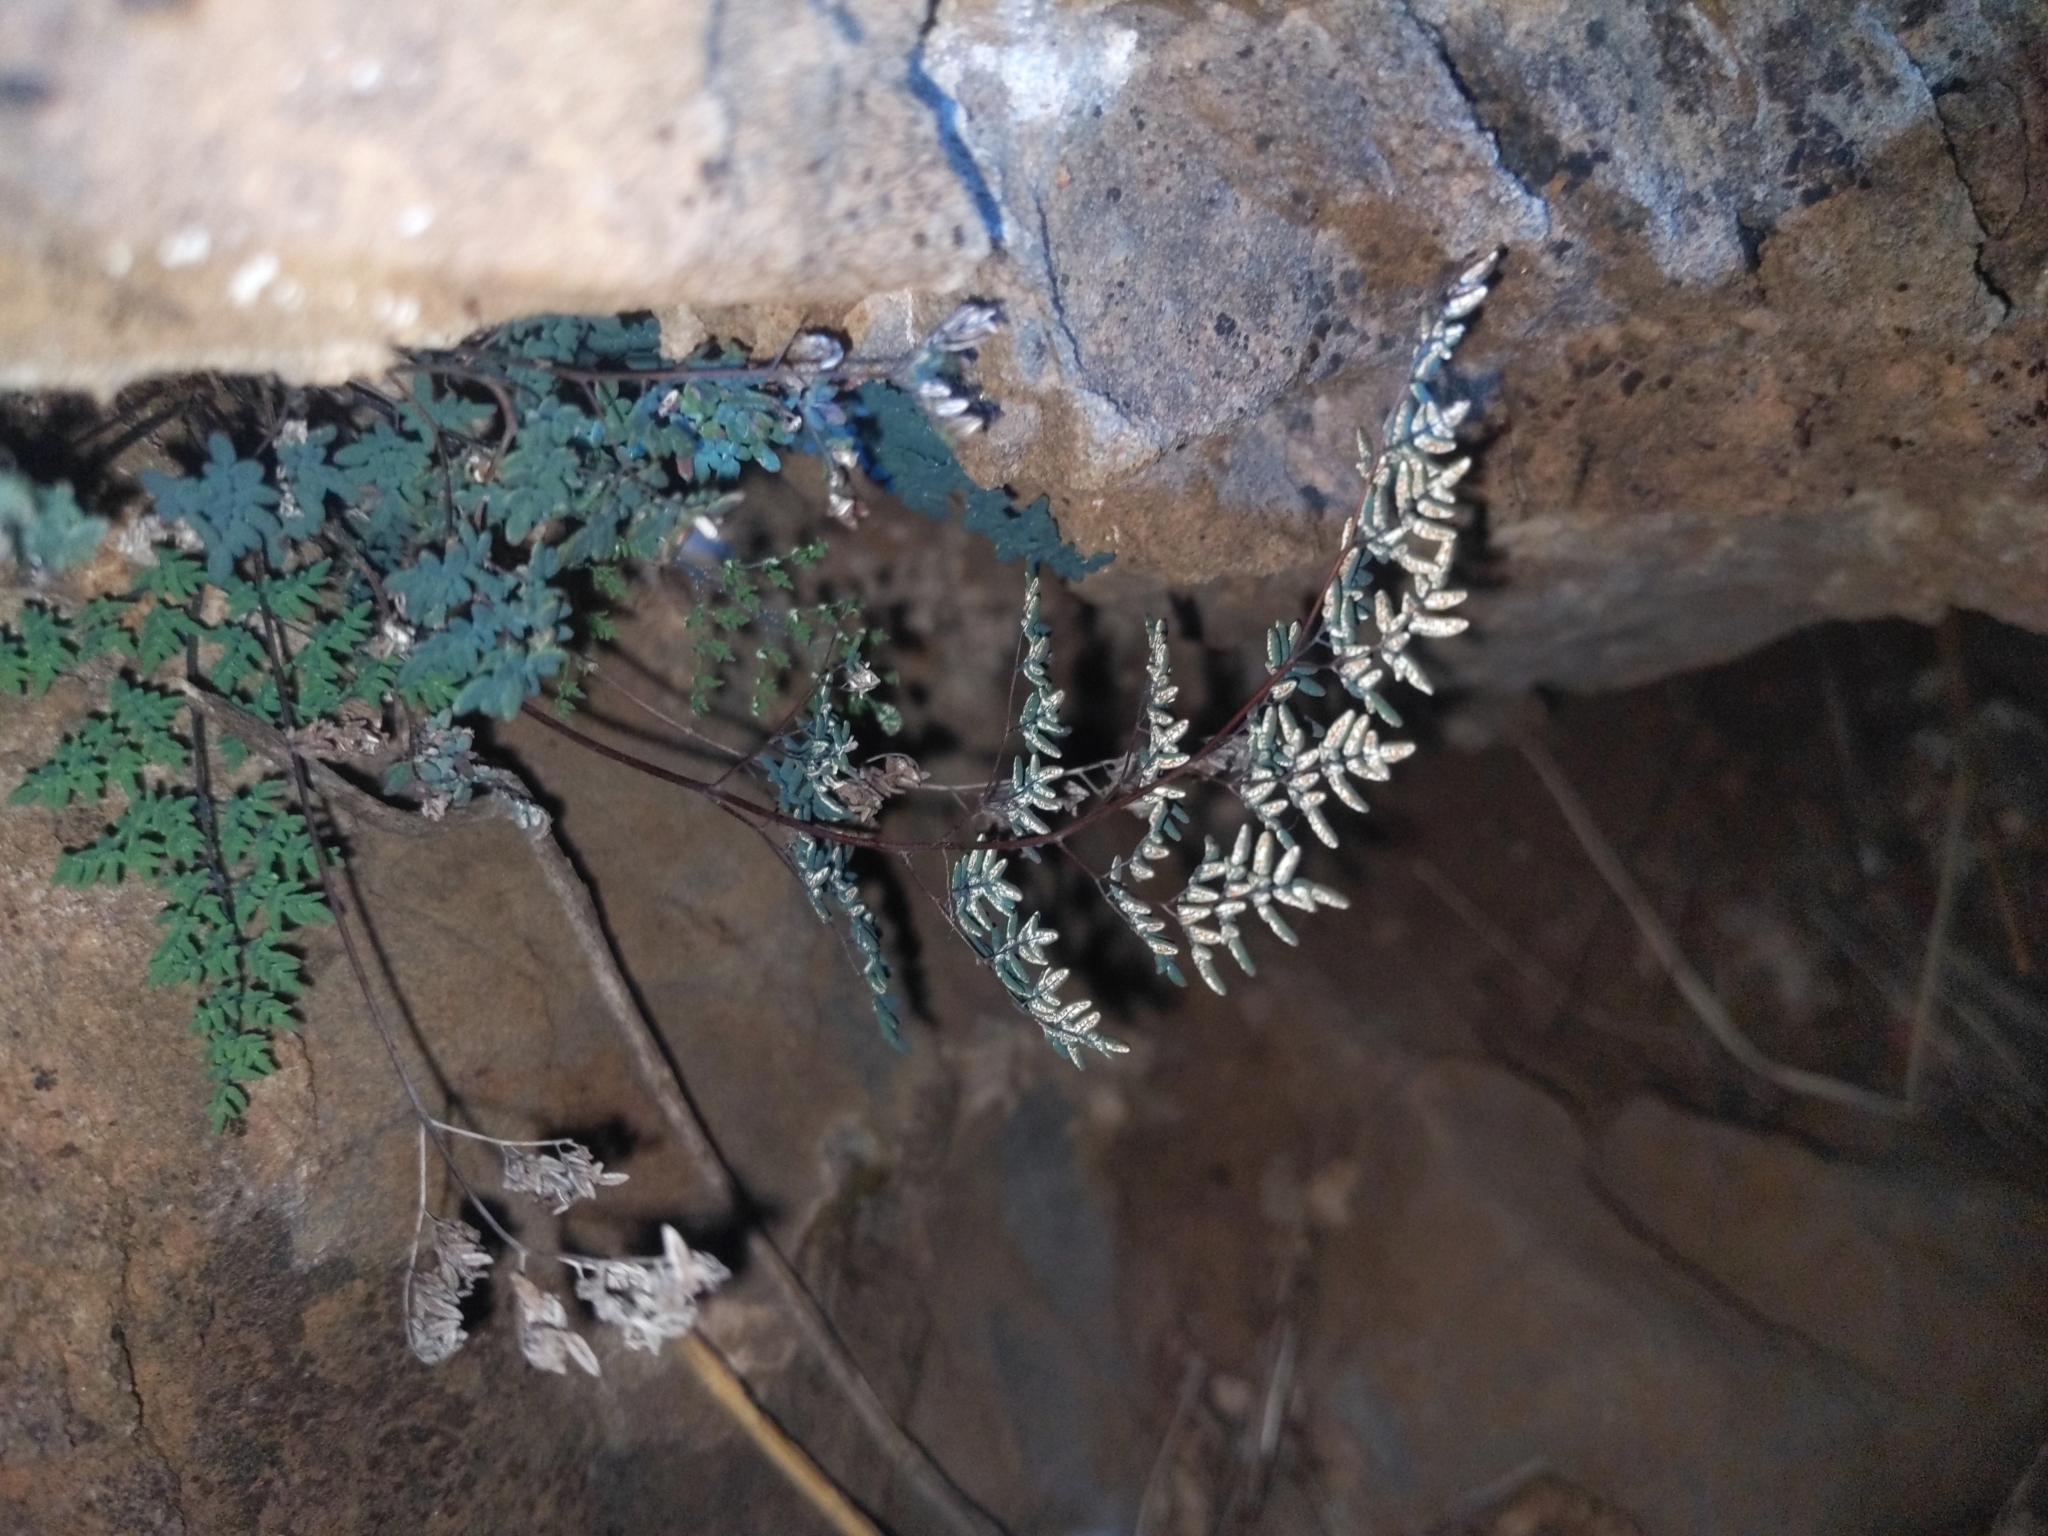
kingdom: Plantae
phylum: Tracheophyta
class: Polypodiopsida
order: Polypodiales
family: Pteridaceae
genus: Argyrochosma
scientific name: Argyrochosma limitanea
